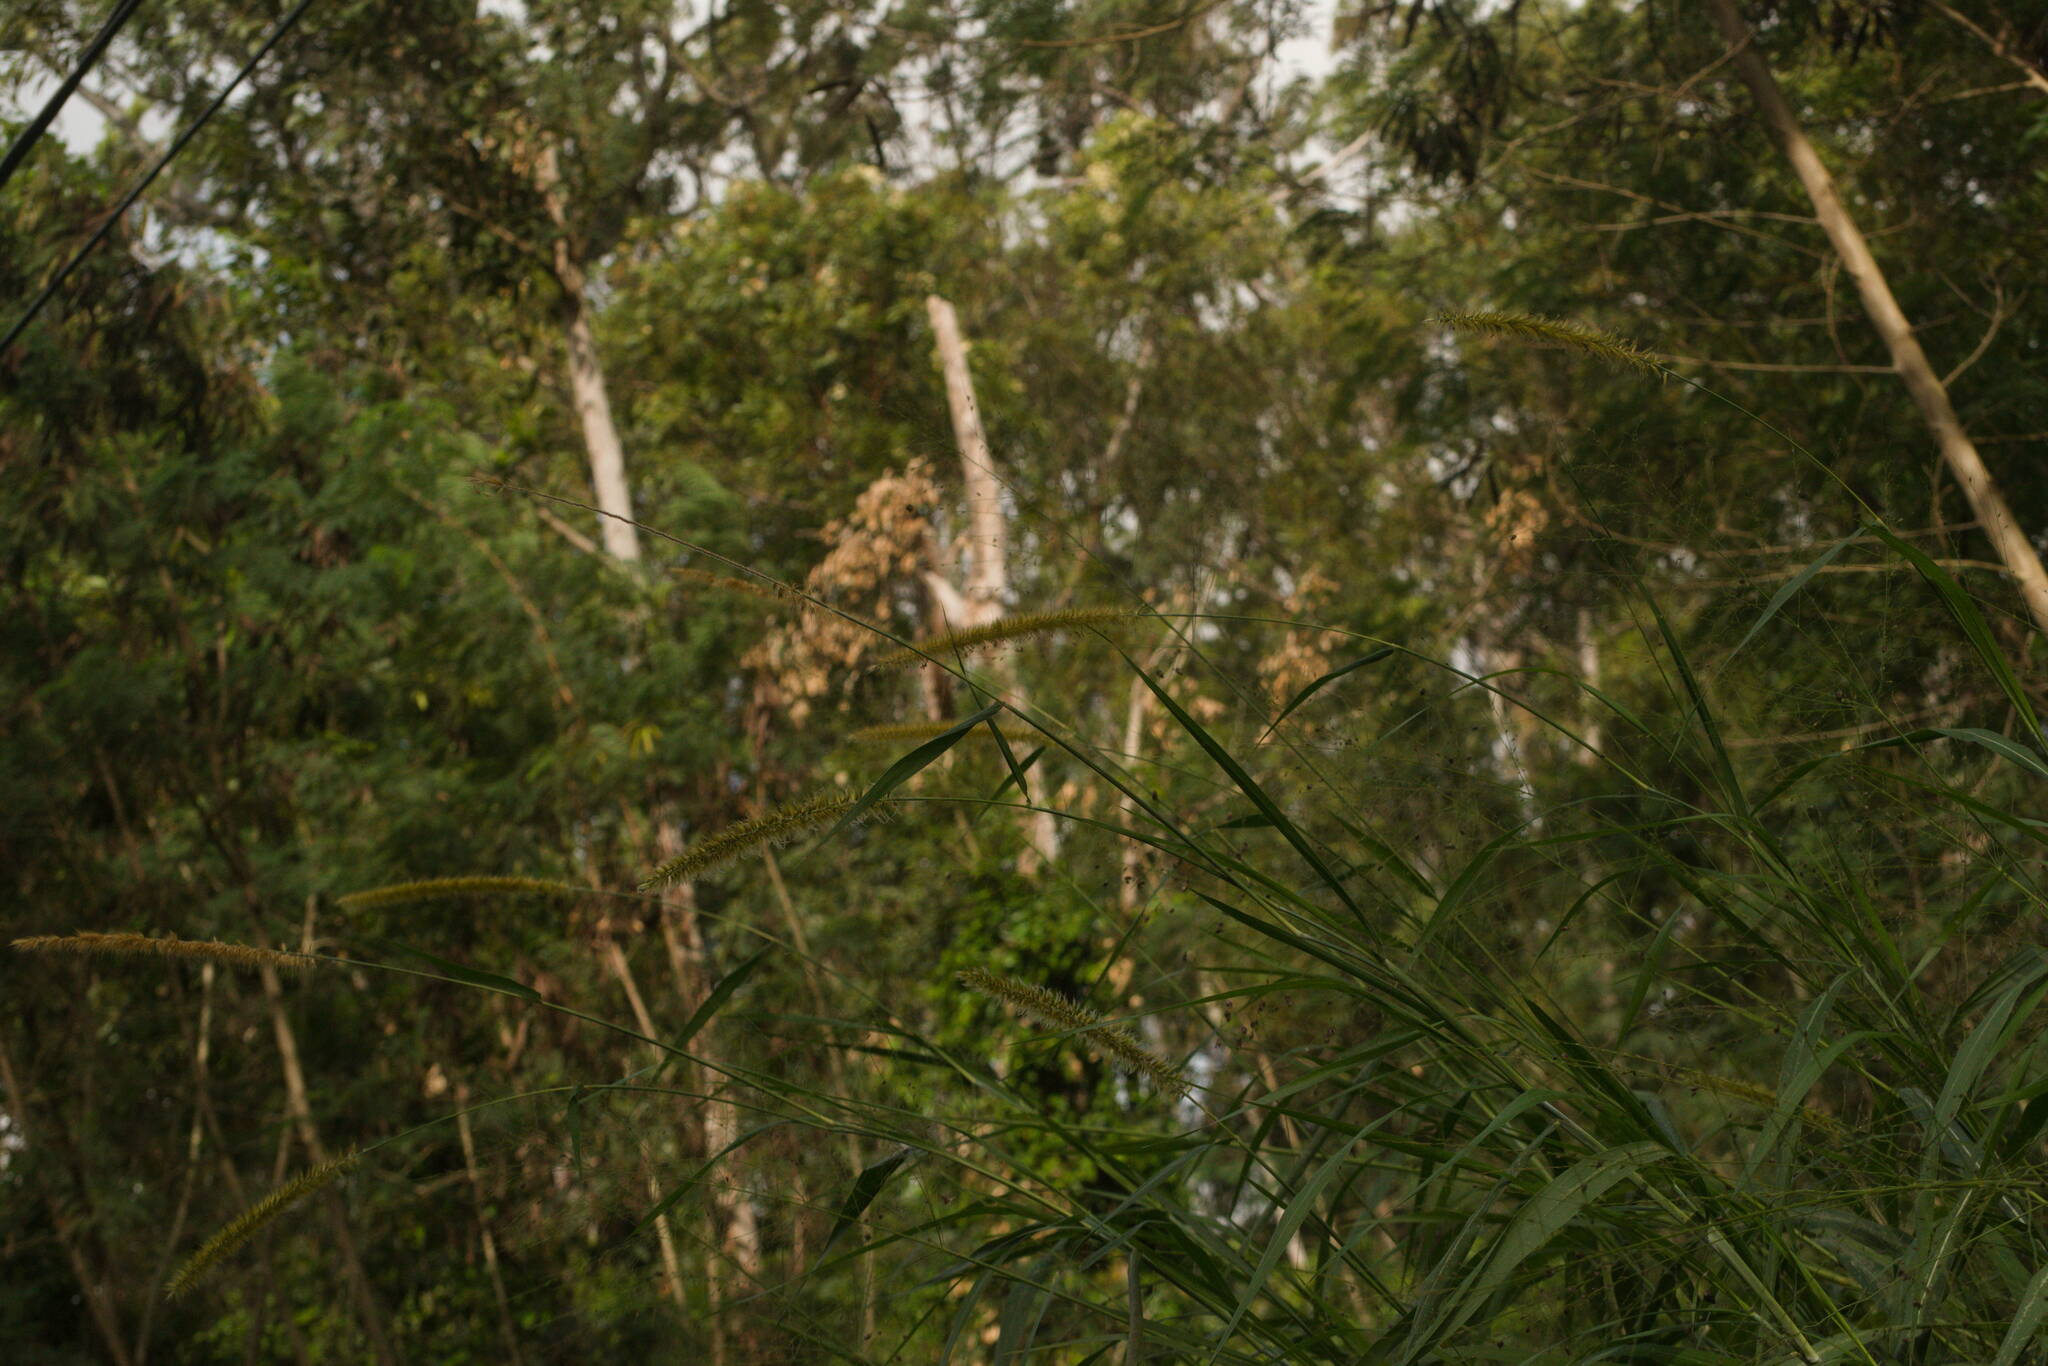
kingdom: Plantae
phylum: Tracheophyta
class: Liliopsida
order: Poales
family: Poaceae
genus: Cenchrus
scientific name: Cenchrus purpureus
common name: Elephant grass
